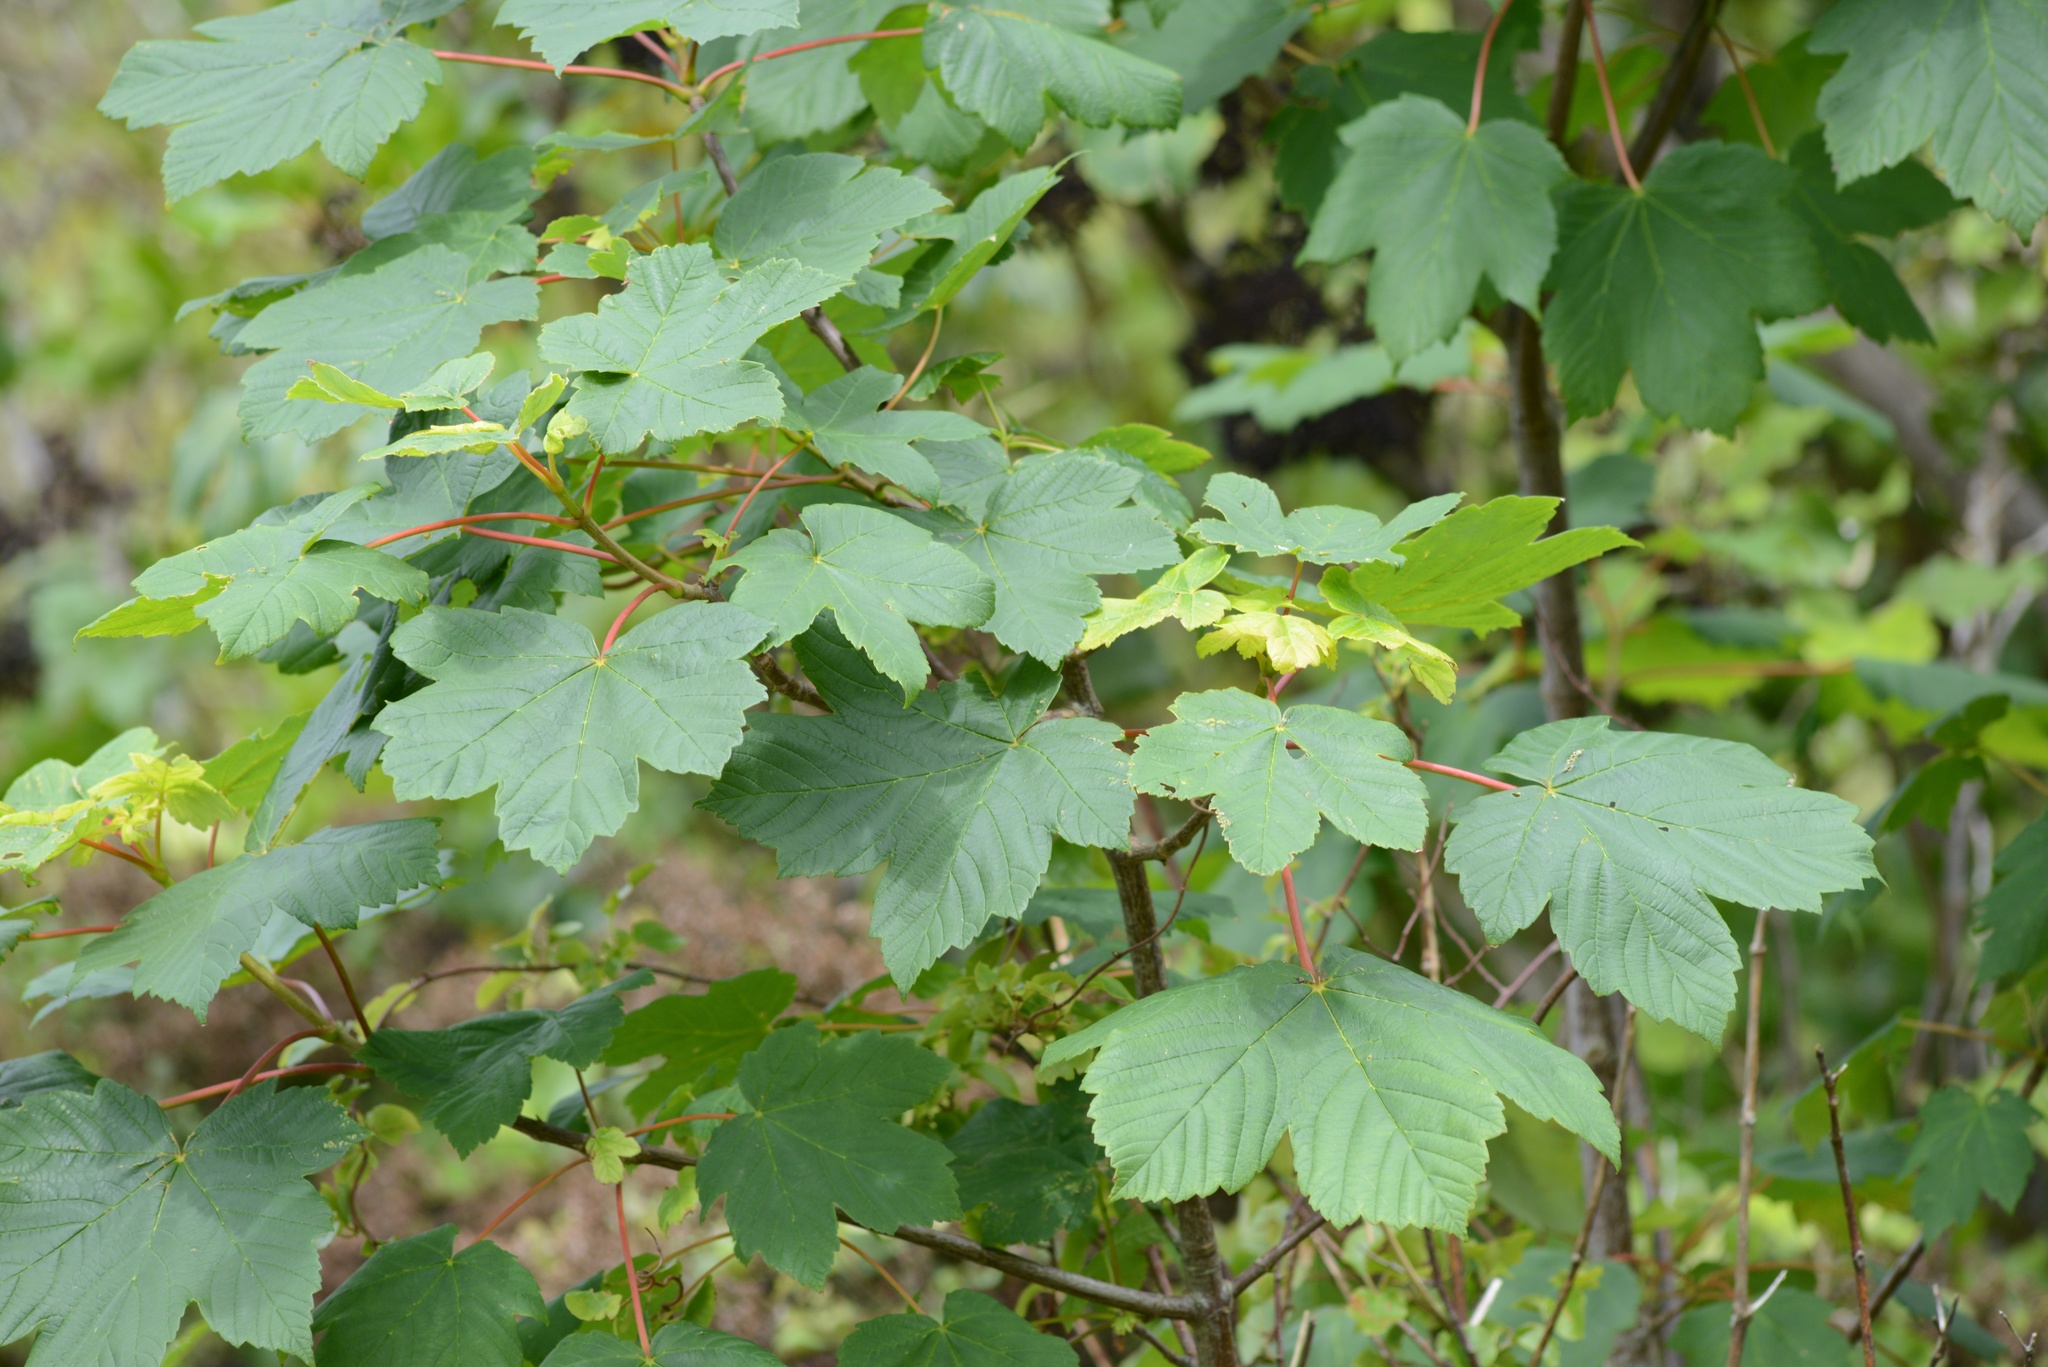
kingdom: Plantae
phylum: Tracheophyta
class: Magnoliopsida
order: Sapindales
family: Sapindaceae
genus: Acer
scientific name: Acer pseudoplatanus
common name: Sycamore
